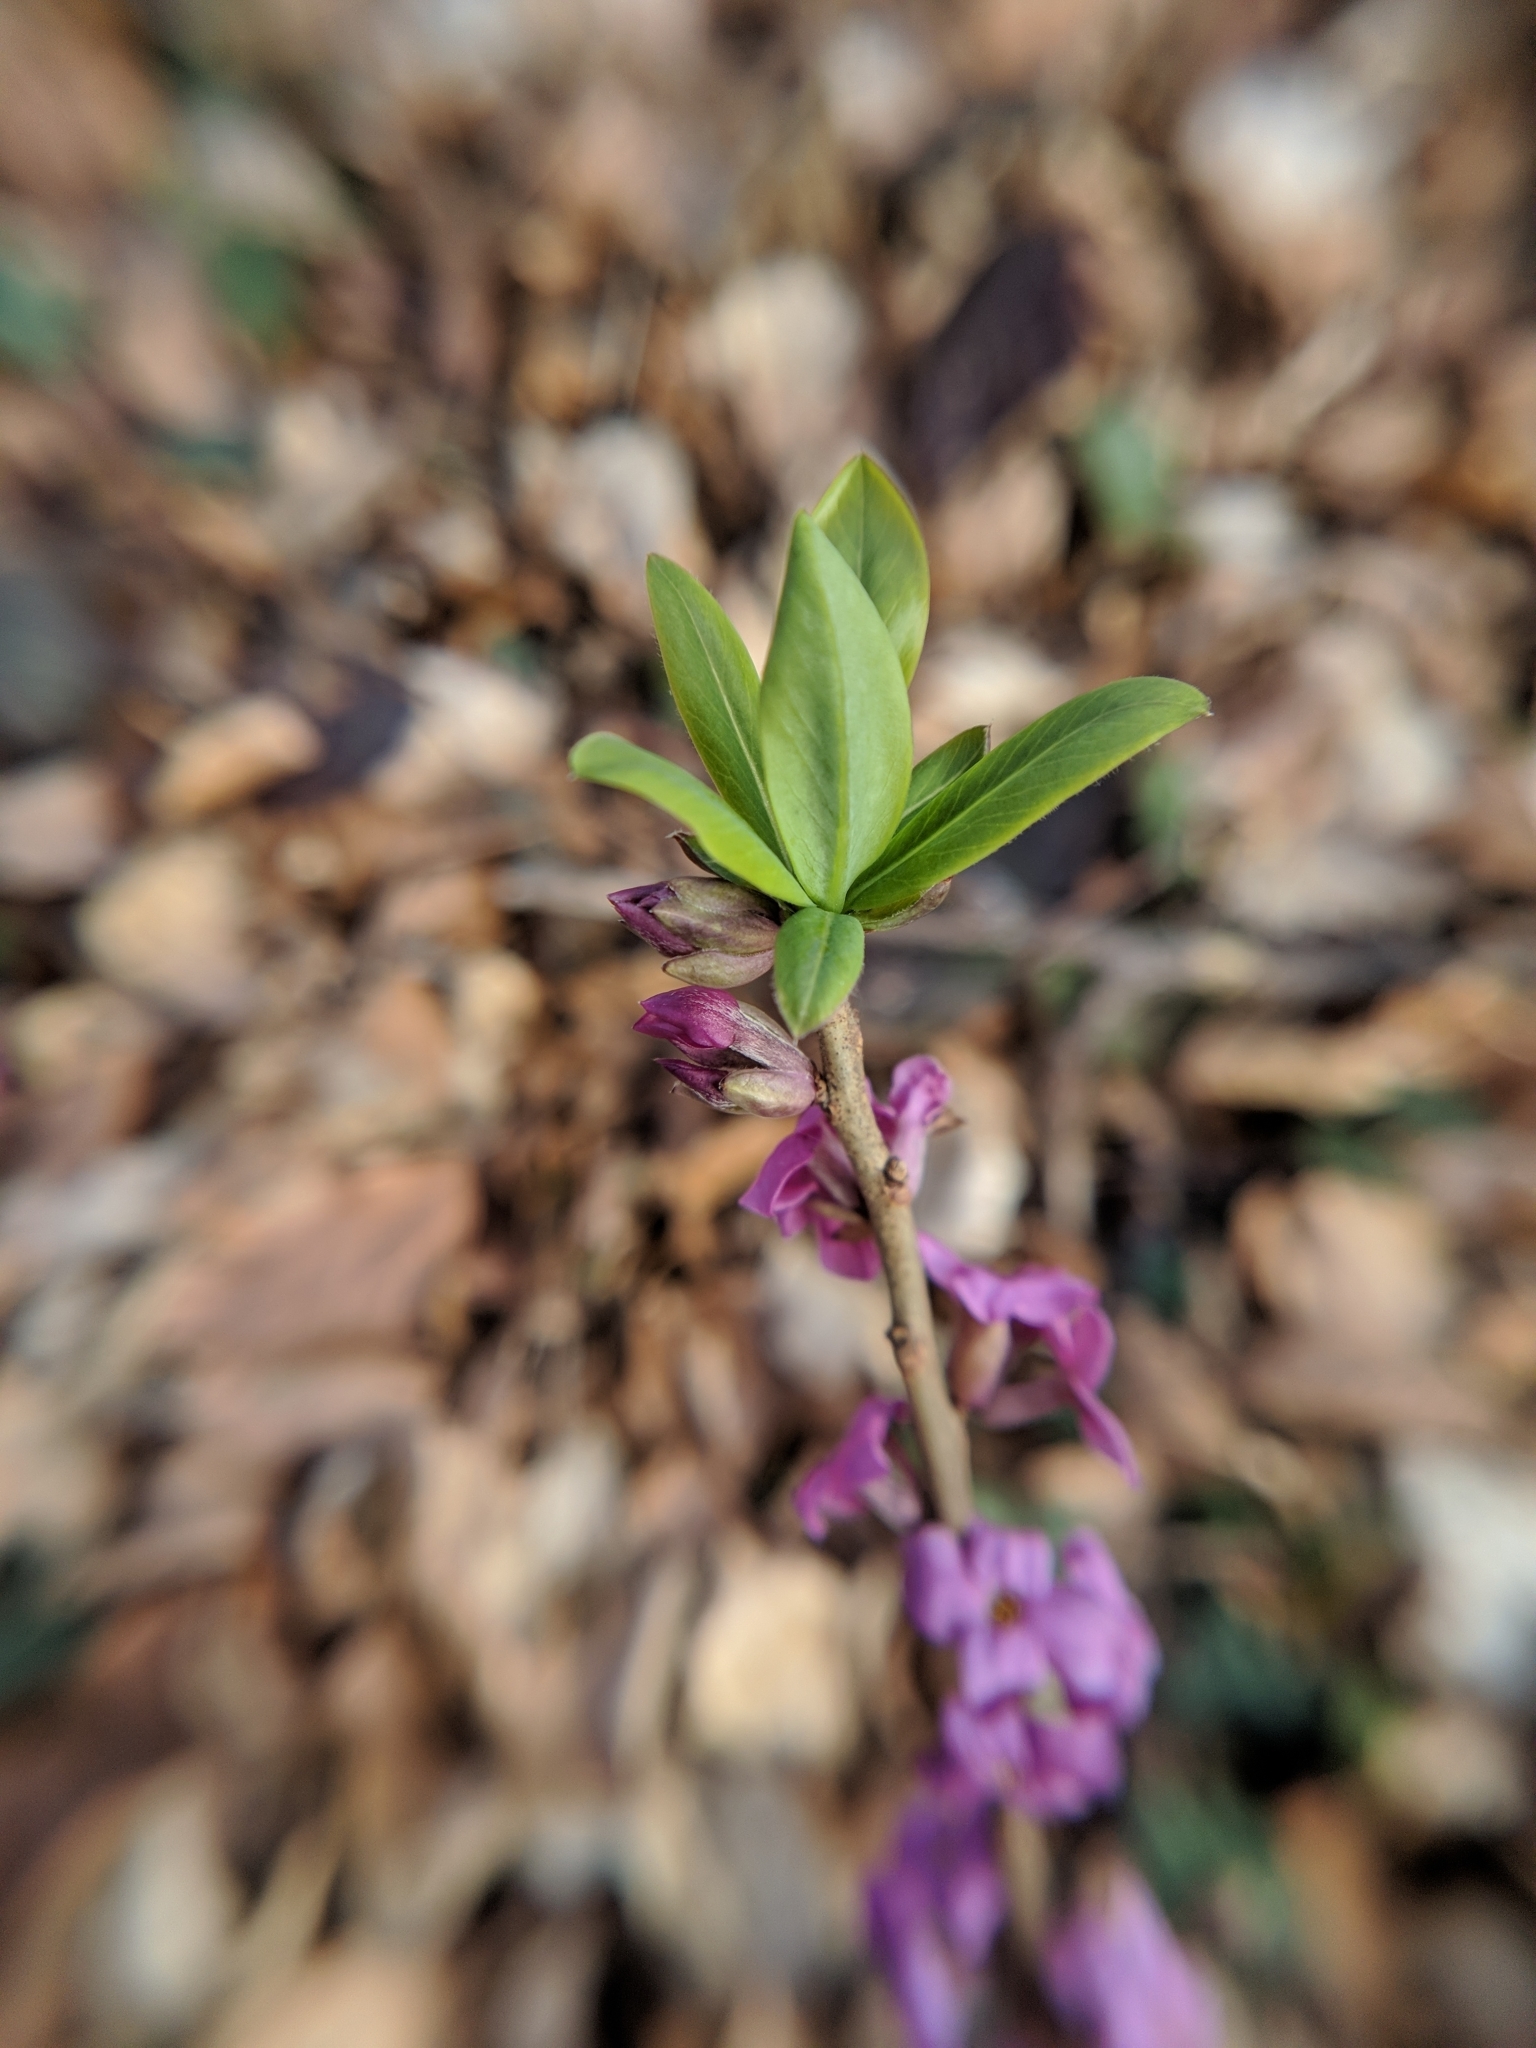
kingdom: Plantae
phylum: Tracheophyta
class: Magnoliopsida
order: Malvales
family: Thymelaeaceae
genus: Daphne
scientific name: Daphne mezereum
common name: Mezereon
